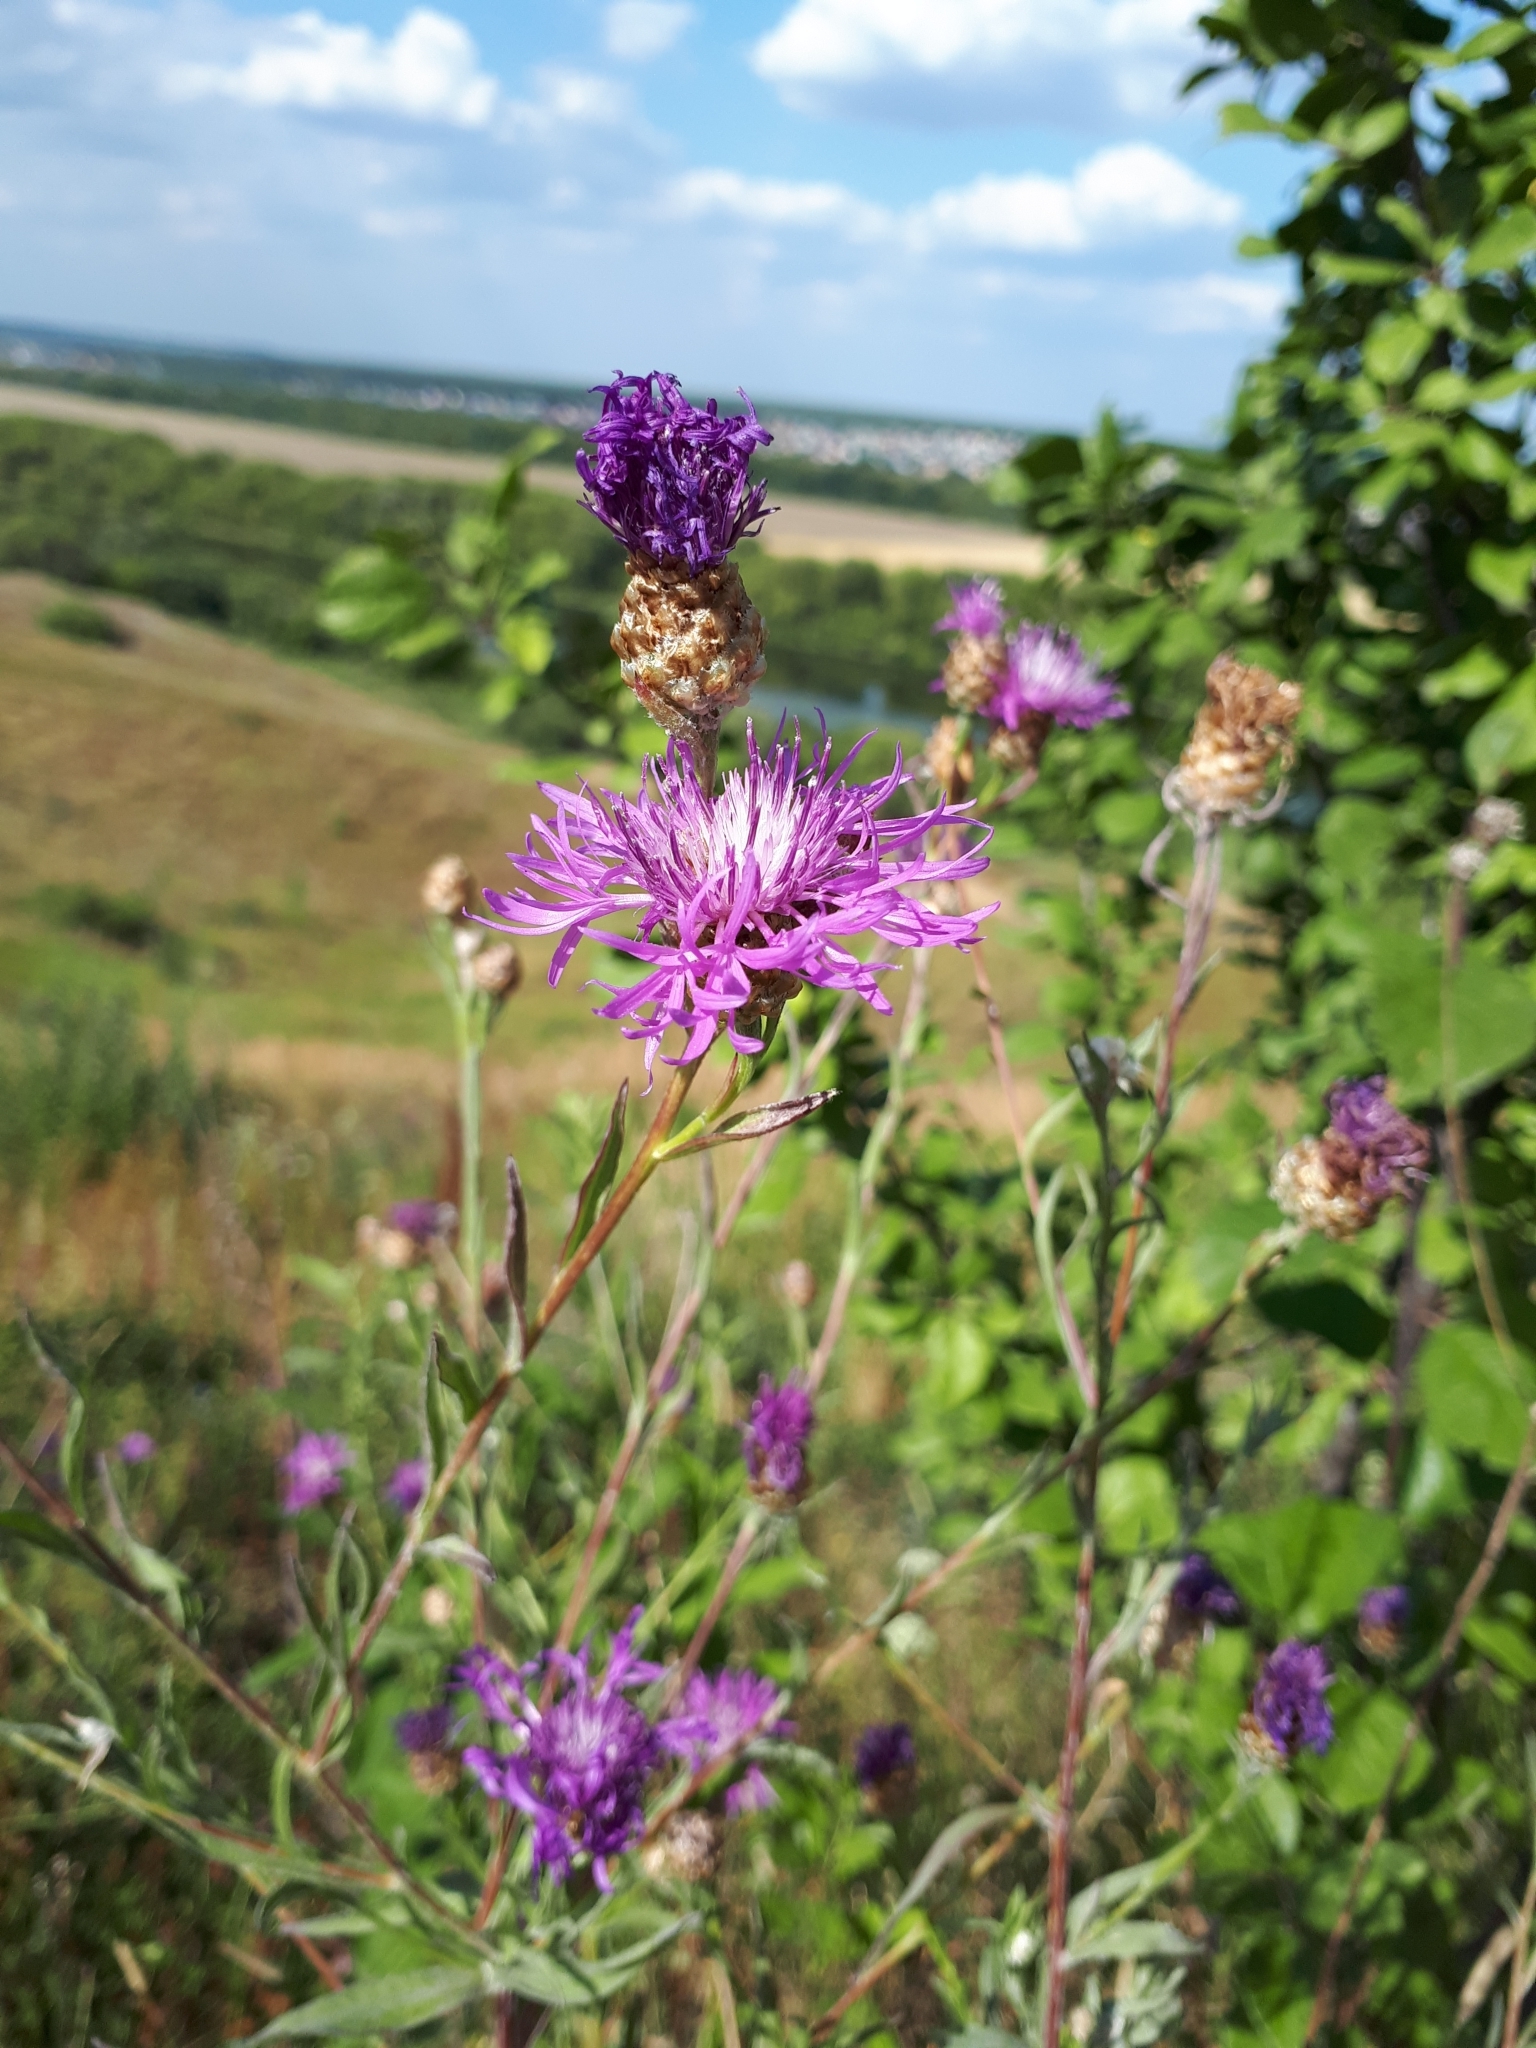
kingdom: Plantae
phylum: Tracheophyta
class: Magnoliopsida
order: Asterales
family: Asteraceae
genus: Centaurea
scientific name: Centaurea jacea
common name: Brown knapweed
